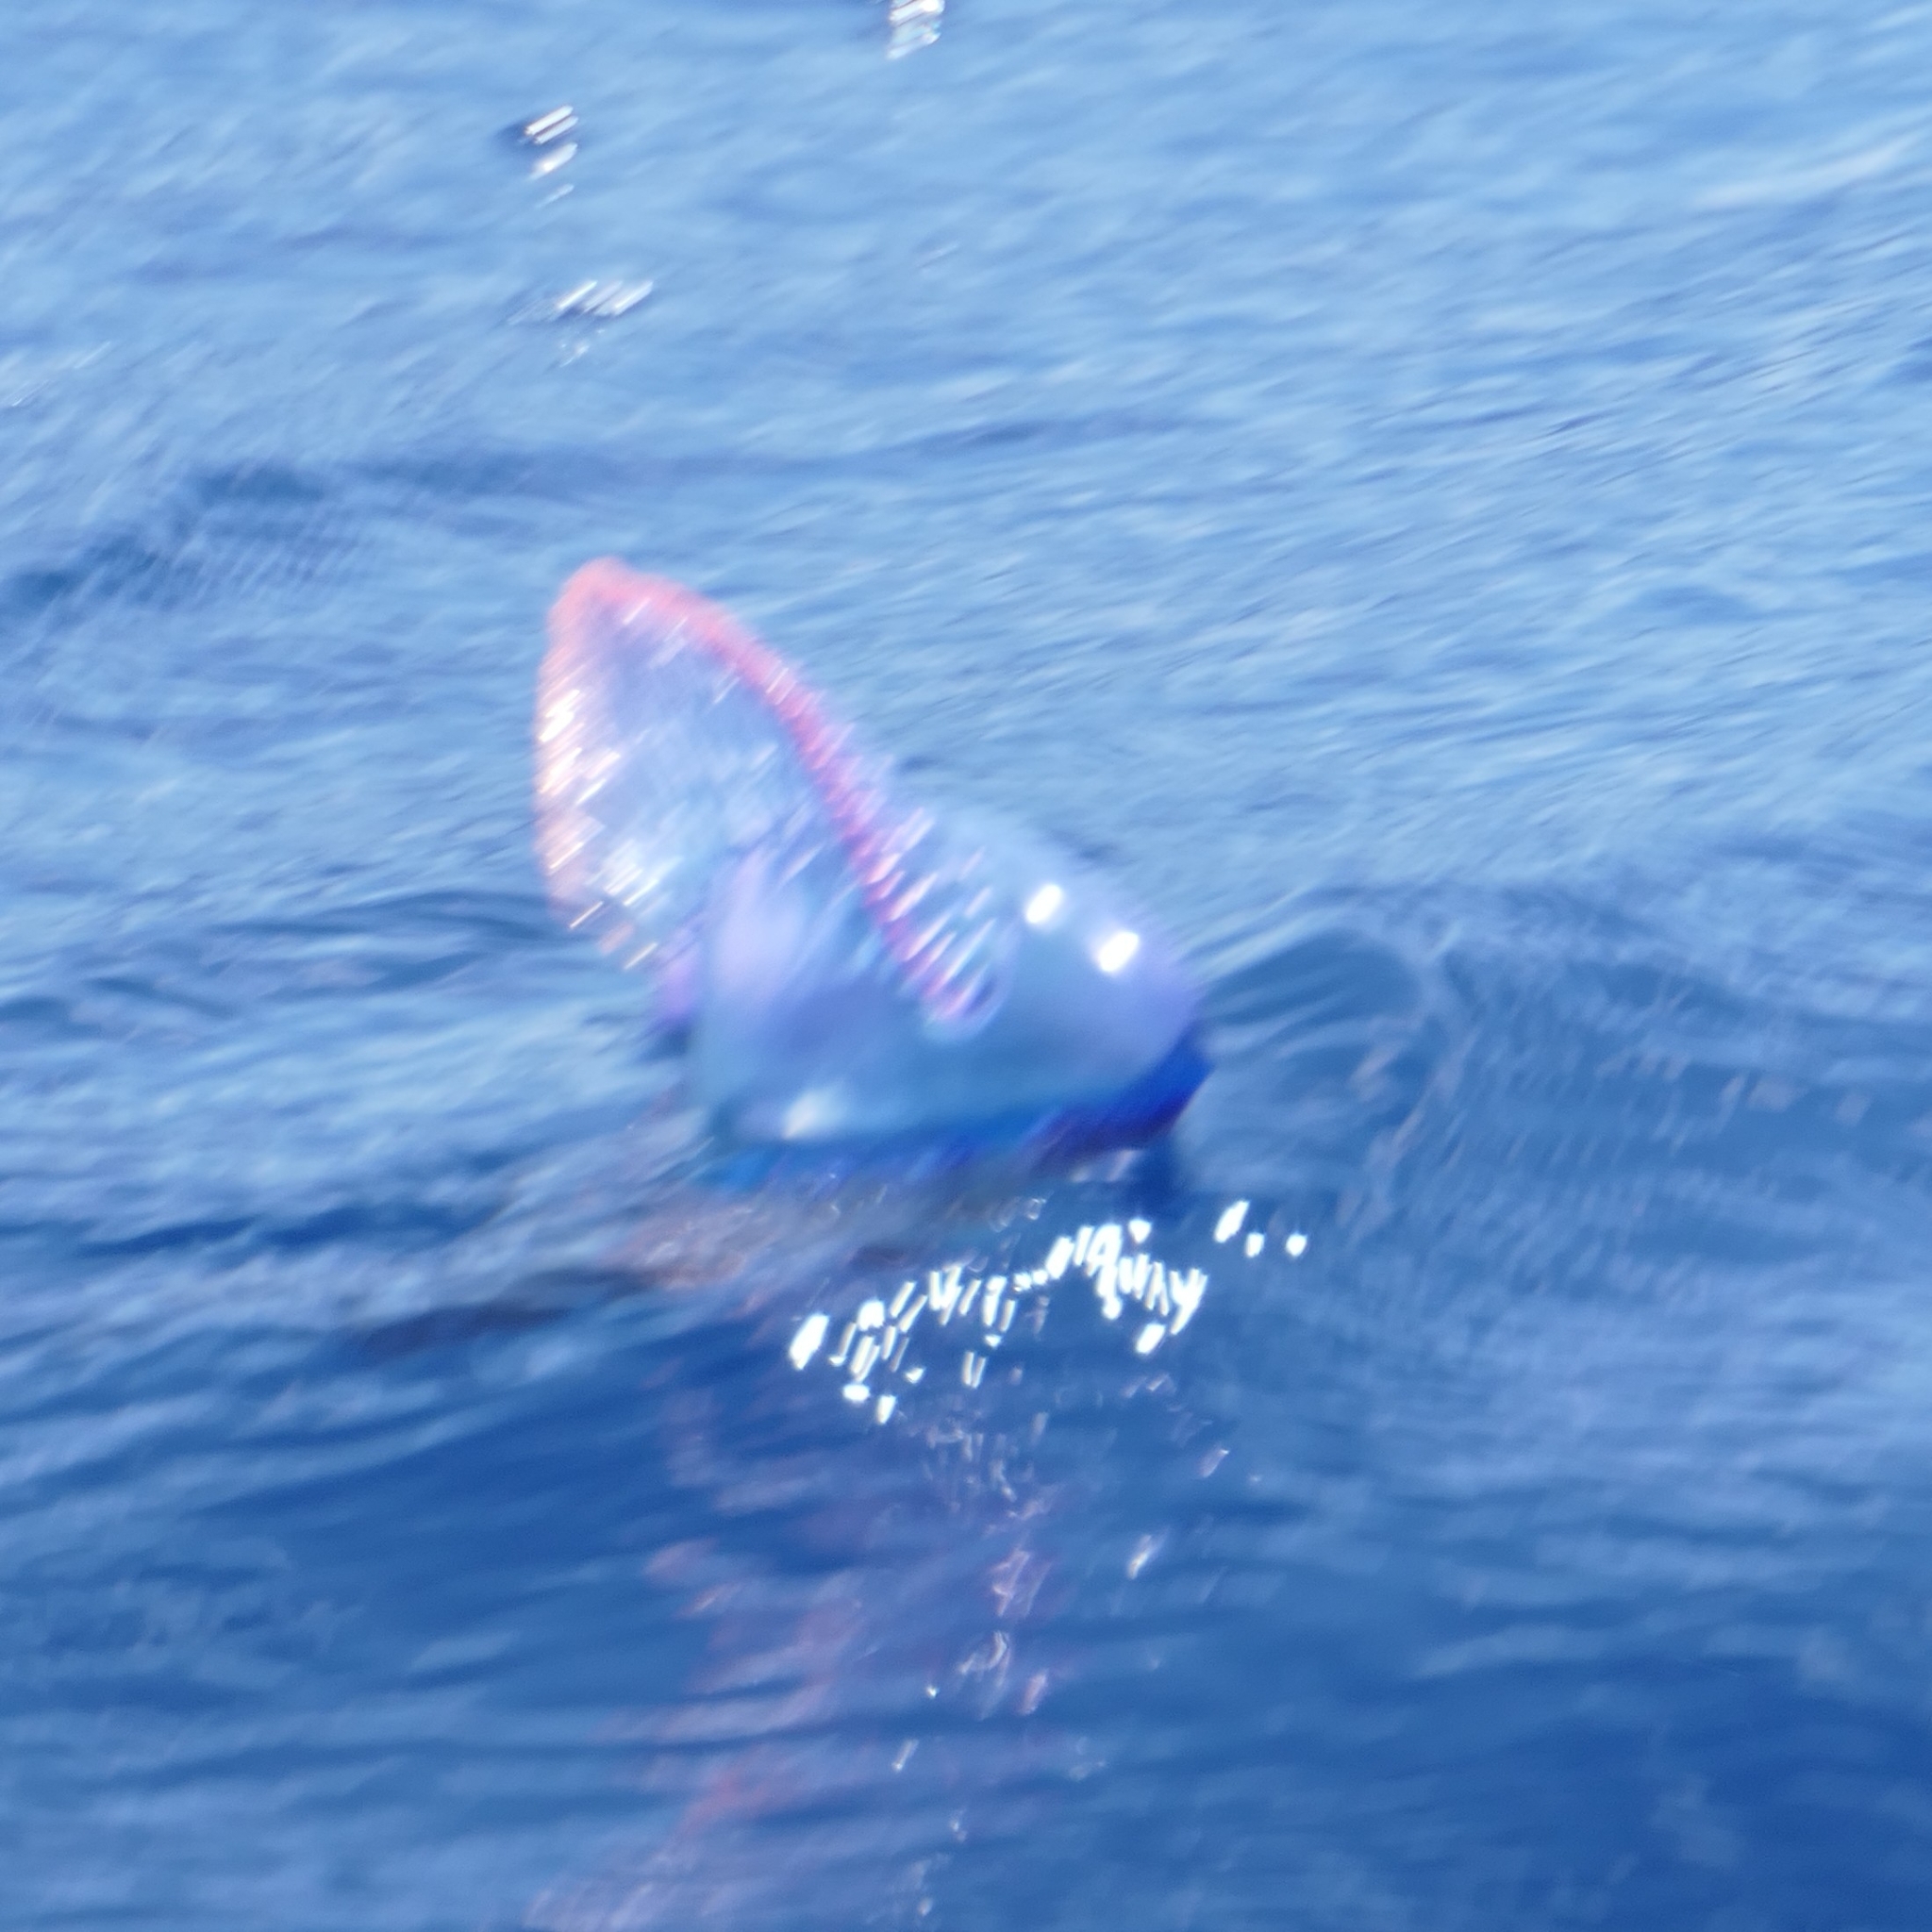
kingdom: Animalia
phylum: Cnidaria
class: Hydrozoa
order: Siphonophorae
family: Physaliidae
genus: Physalia
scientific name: Physalia physalis
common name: Portuguese man-of-war
